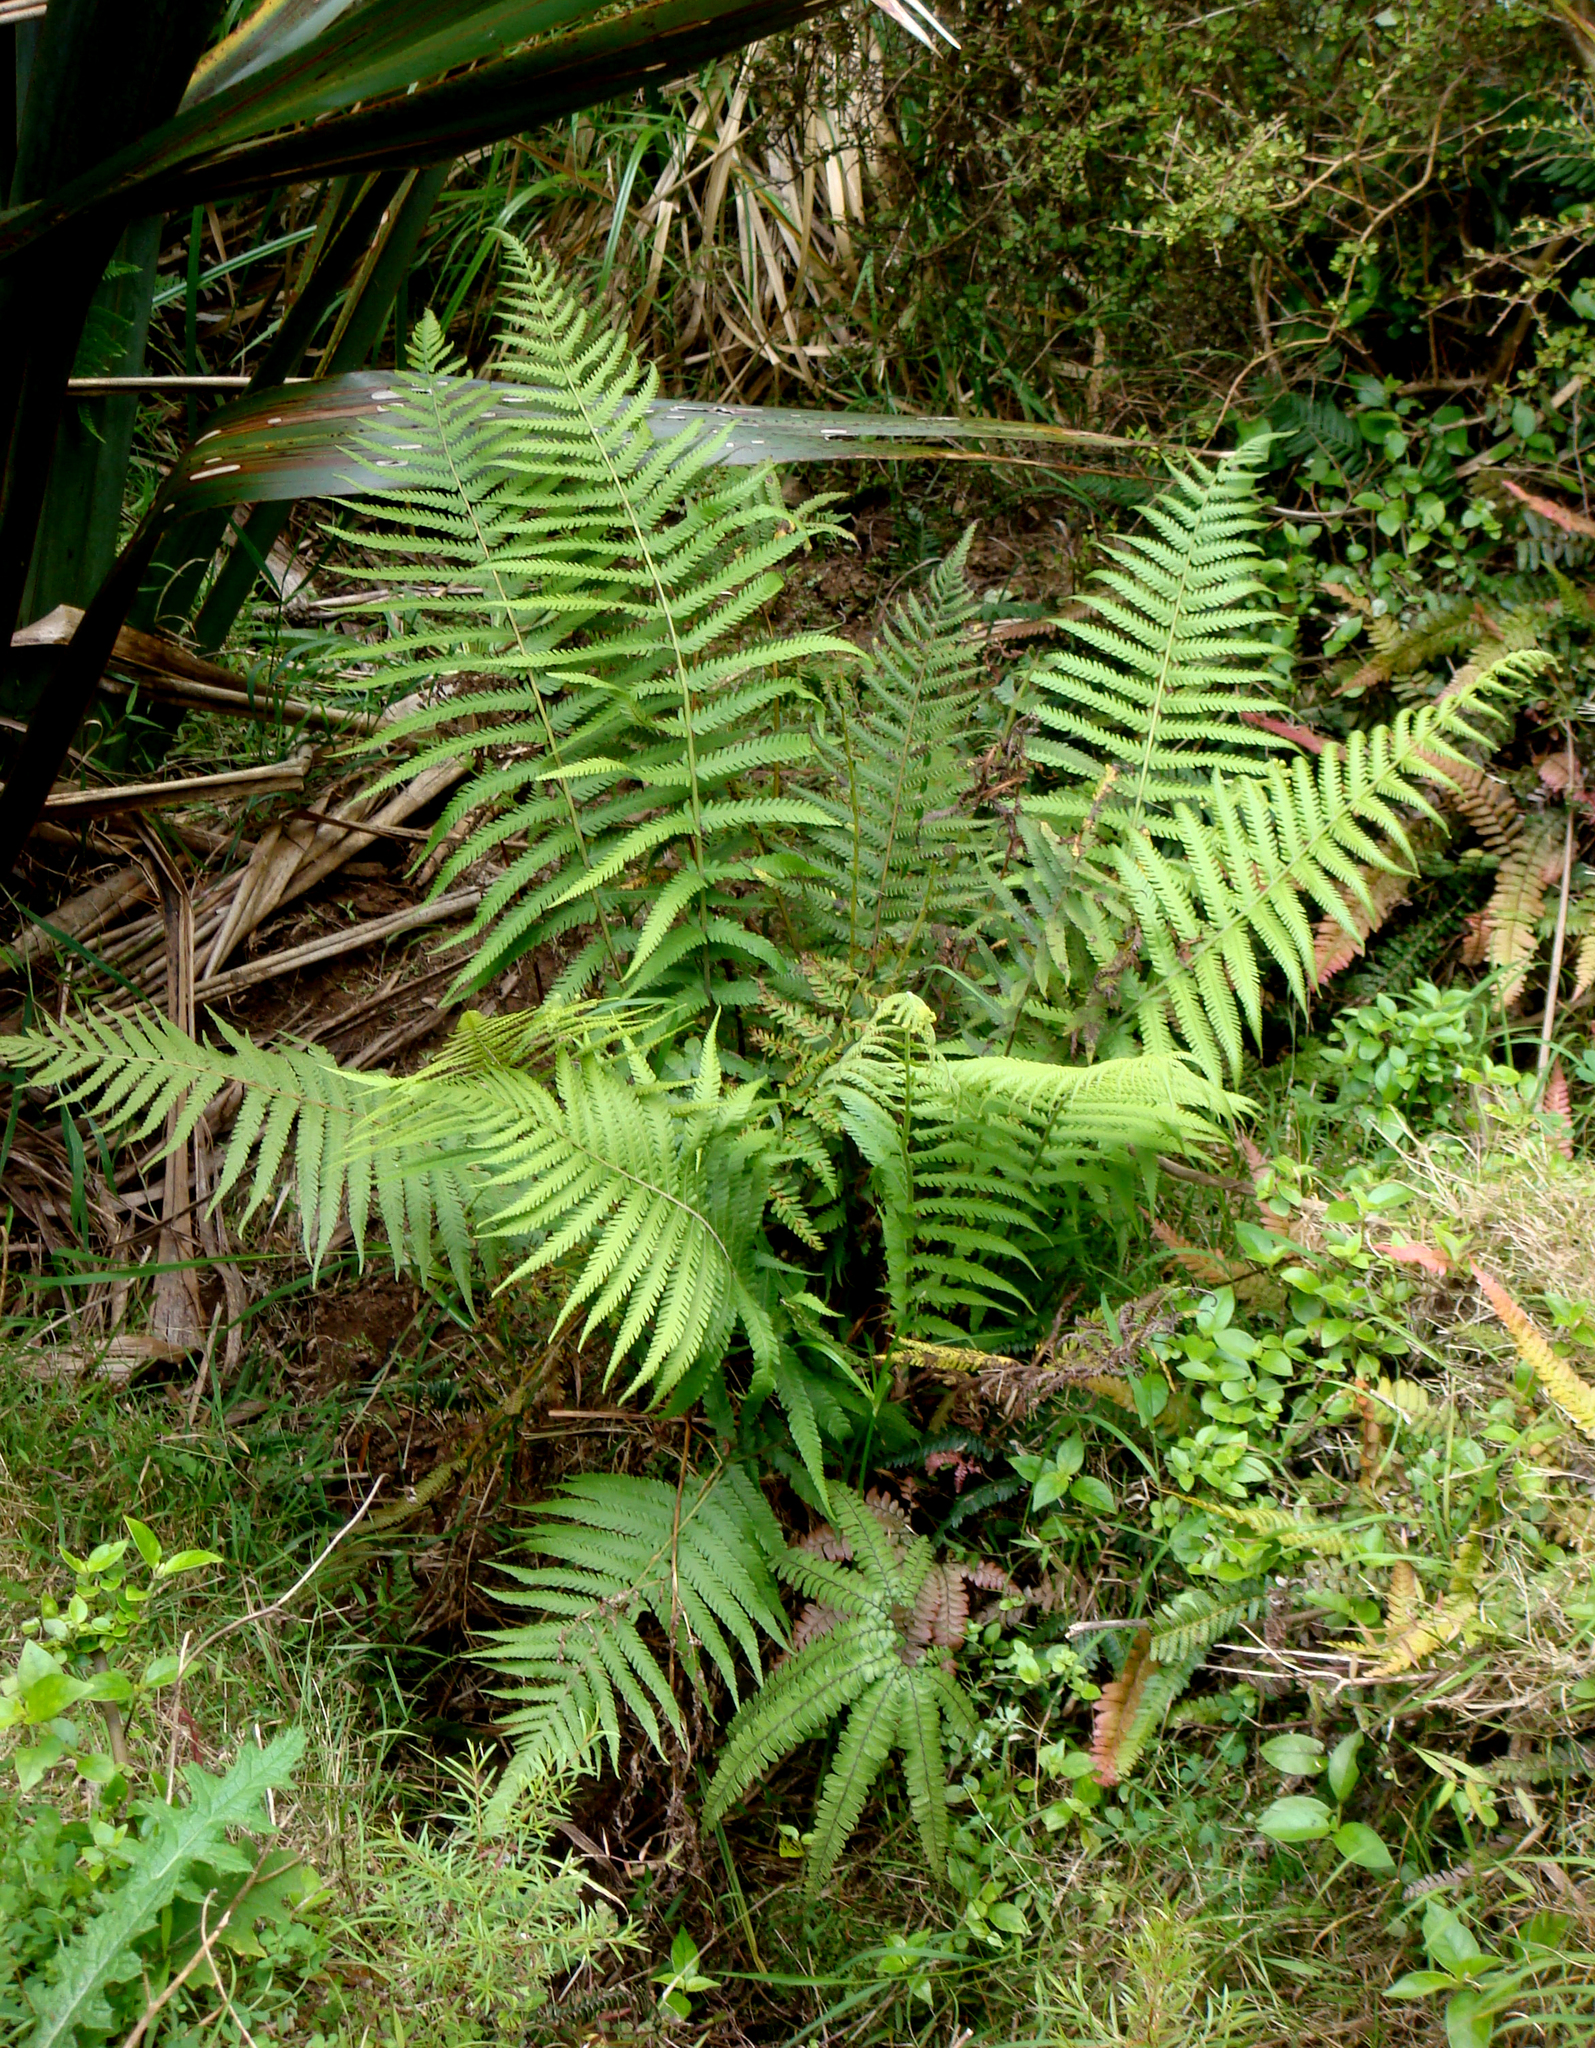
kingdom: Plantae
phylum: Tracheophyta
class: Polypodiopsida
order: Polypodiales
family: Thelypteridaceae
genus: Christella
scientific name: Christella dentata
